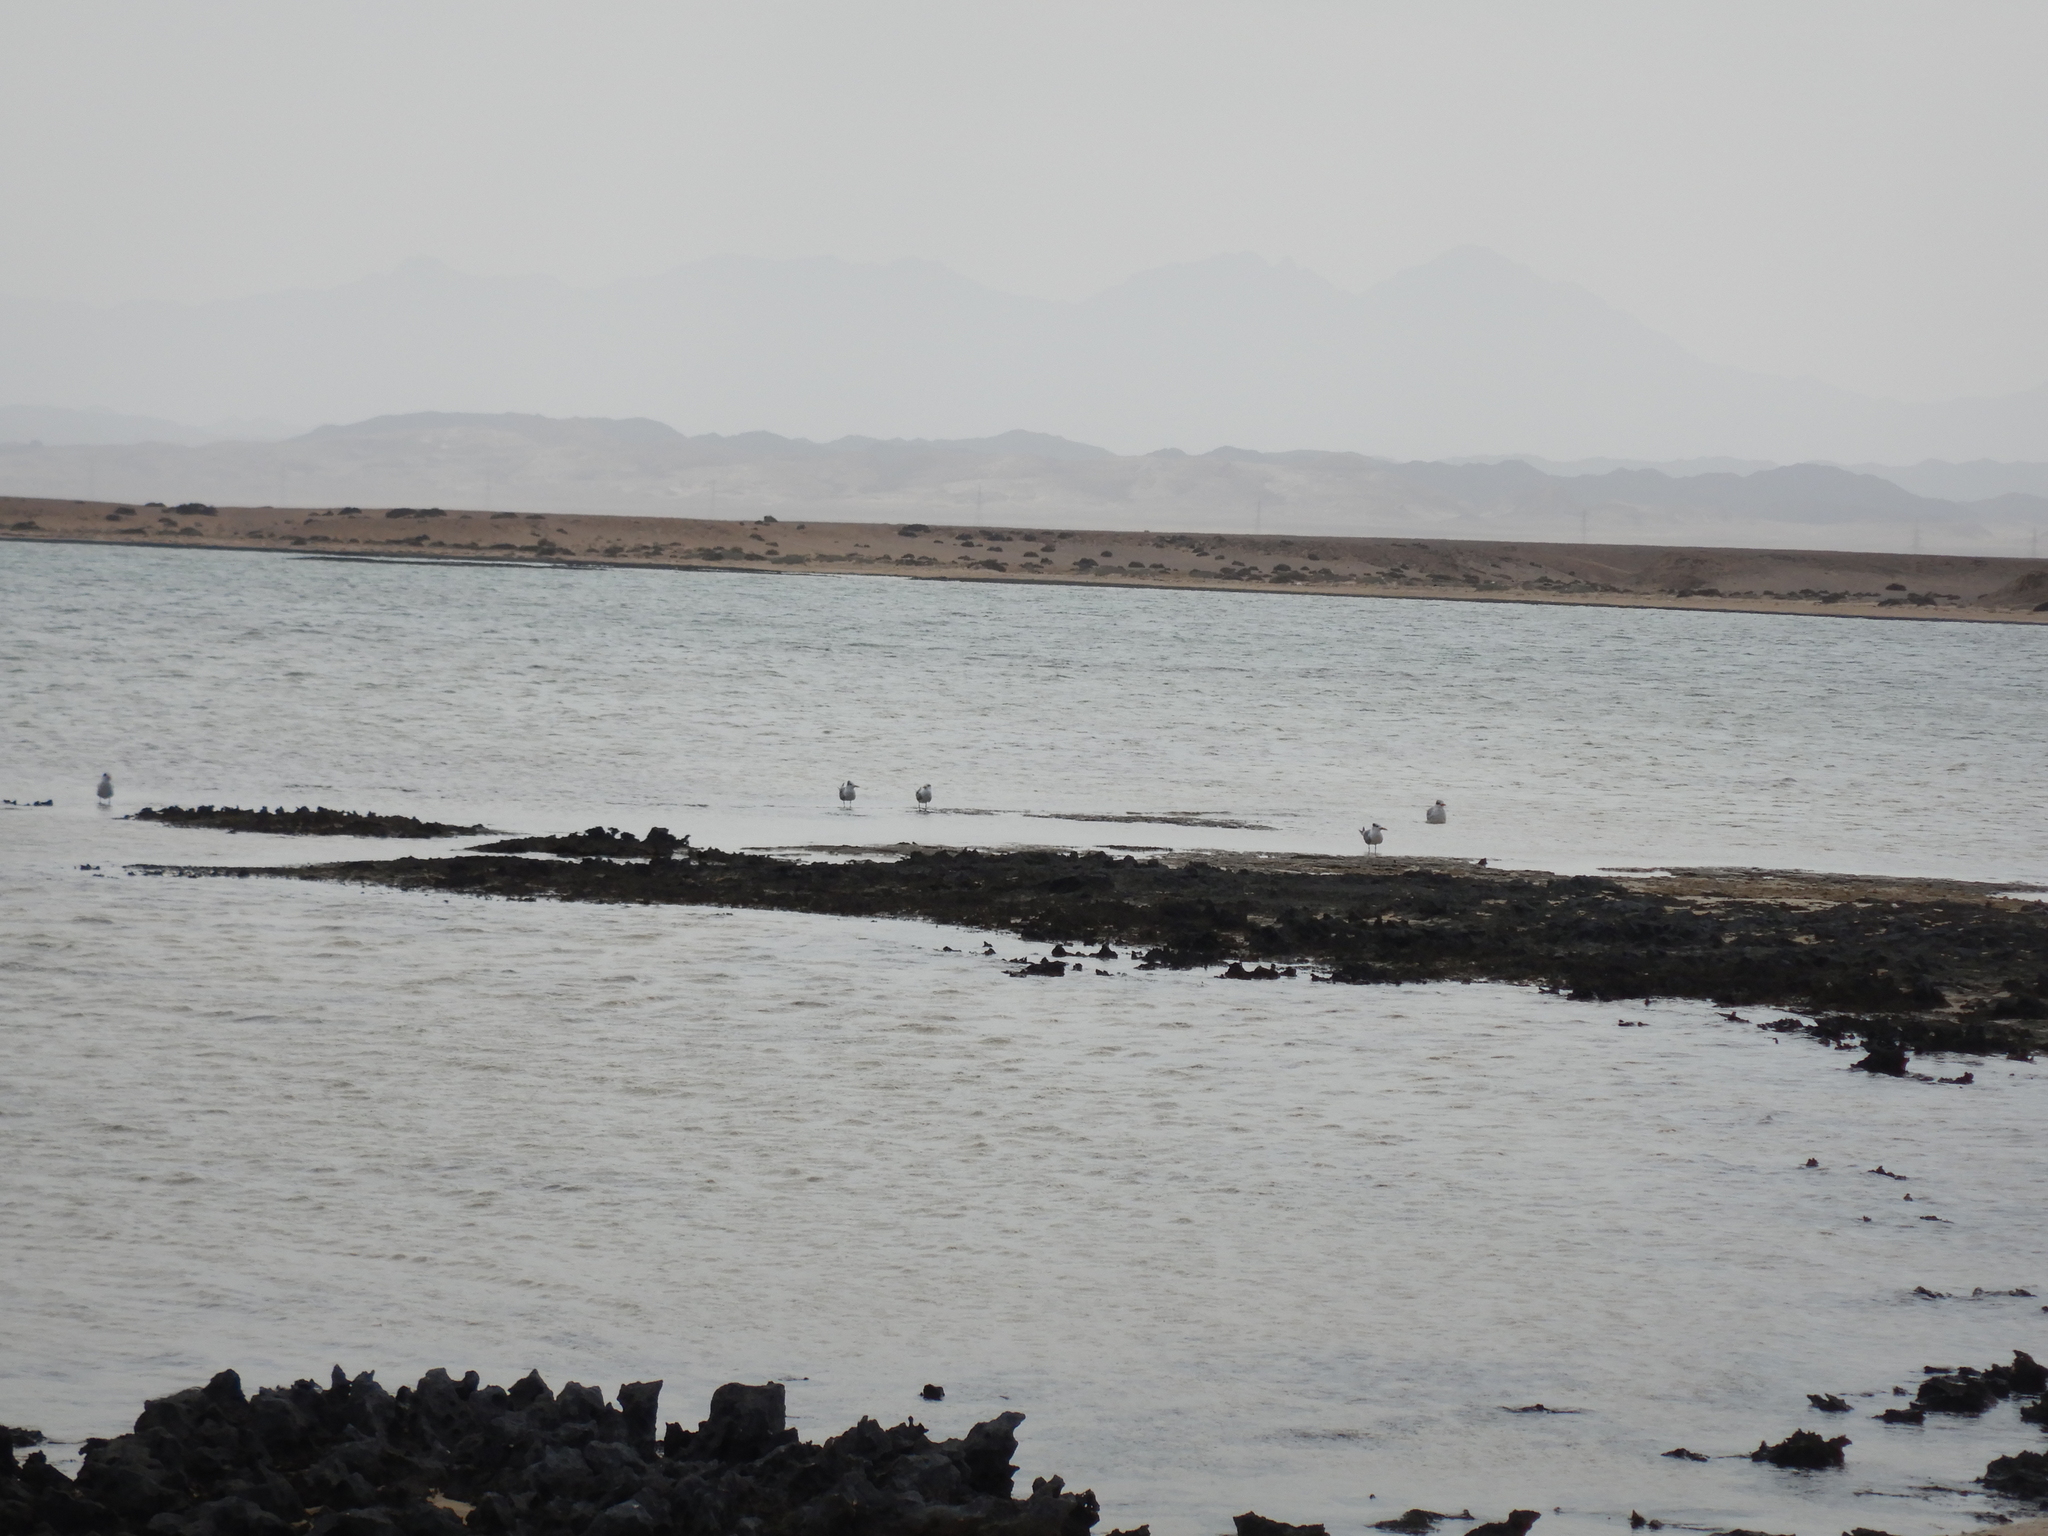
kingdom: Animalia
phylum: Chordata
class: Aves
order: Charadriiformes
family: Laridae
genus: Thalasseus
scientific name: Thalasseus bergii
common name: Greater crested tern
